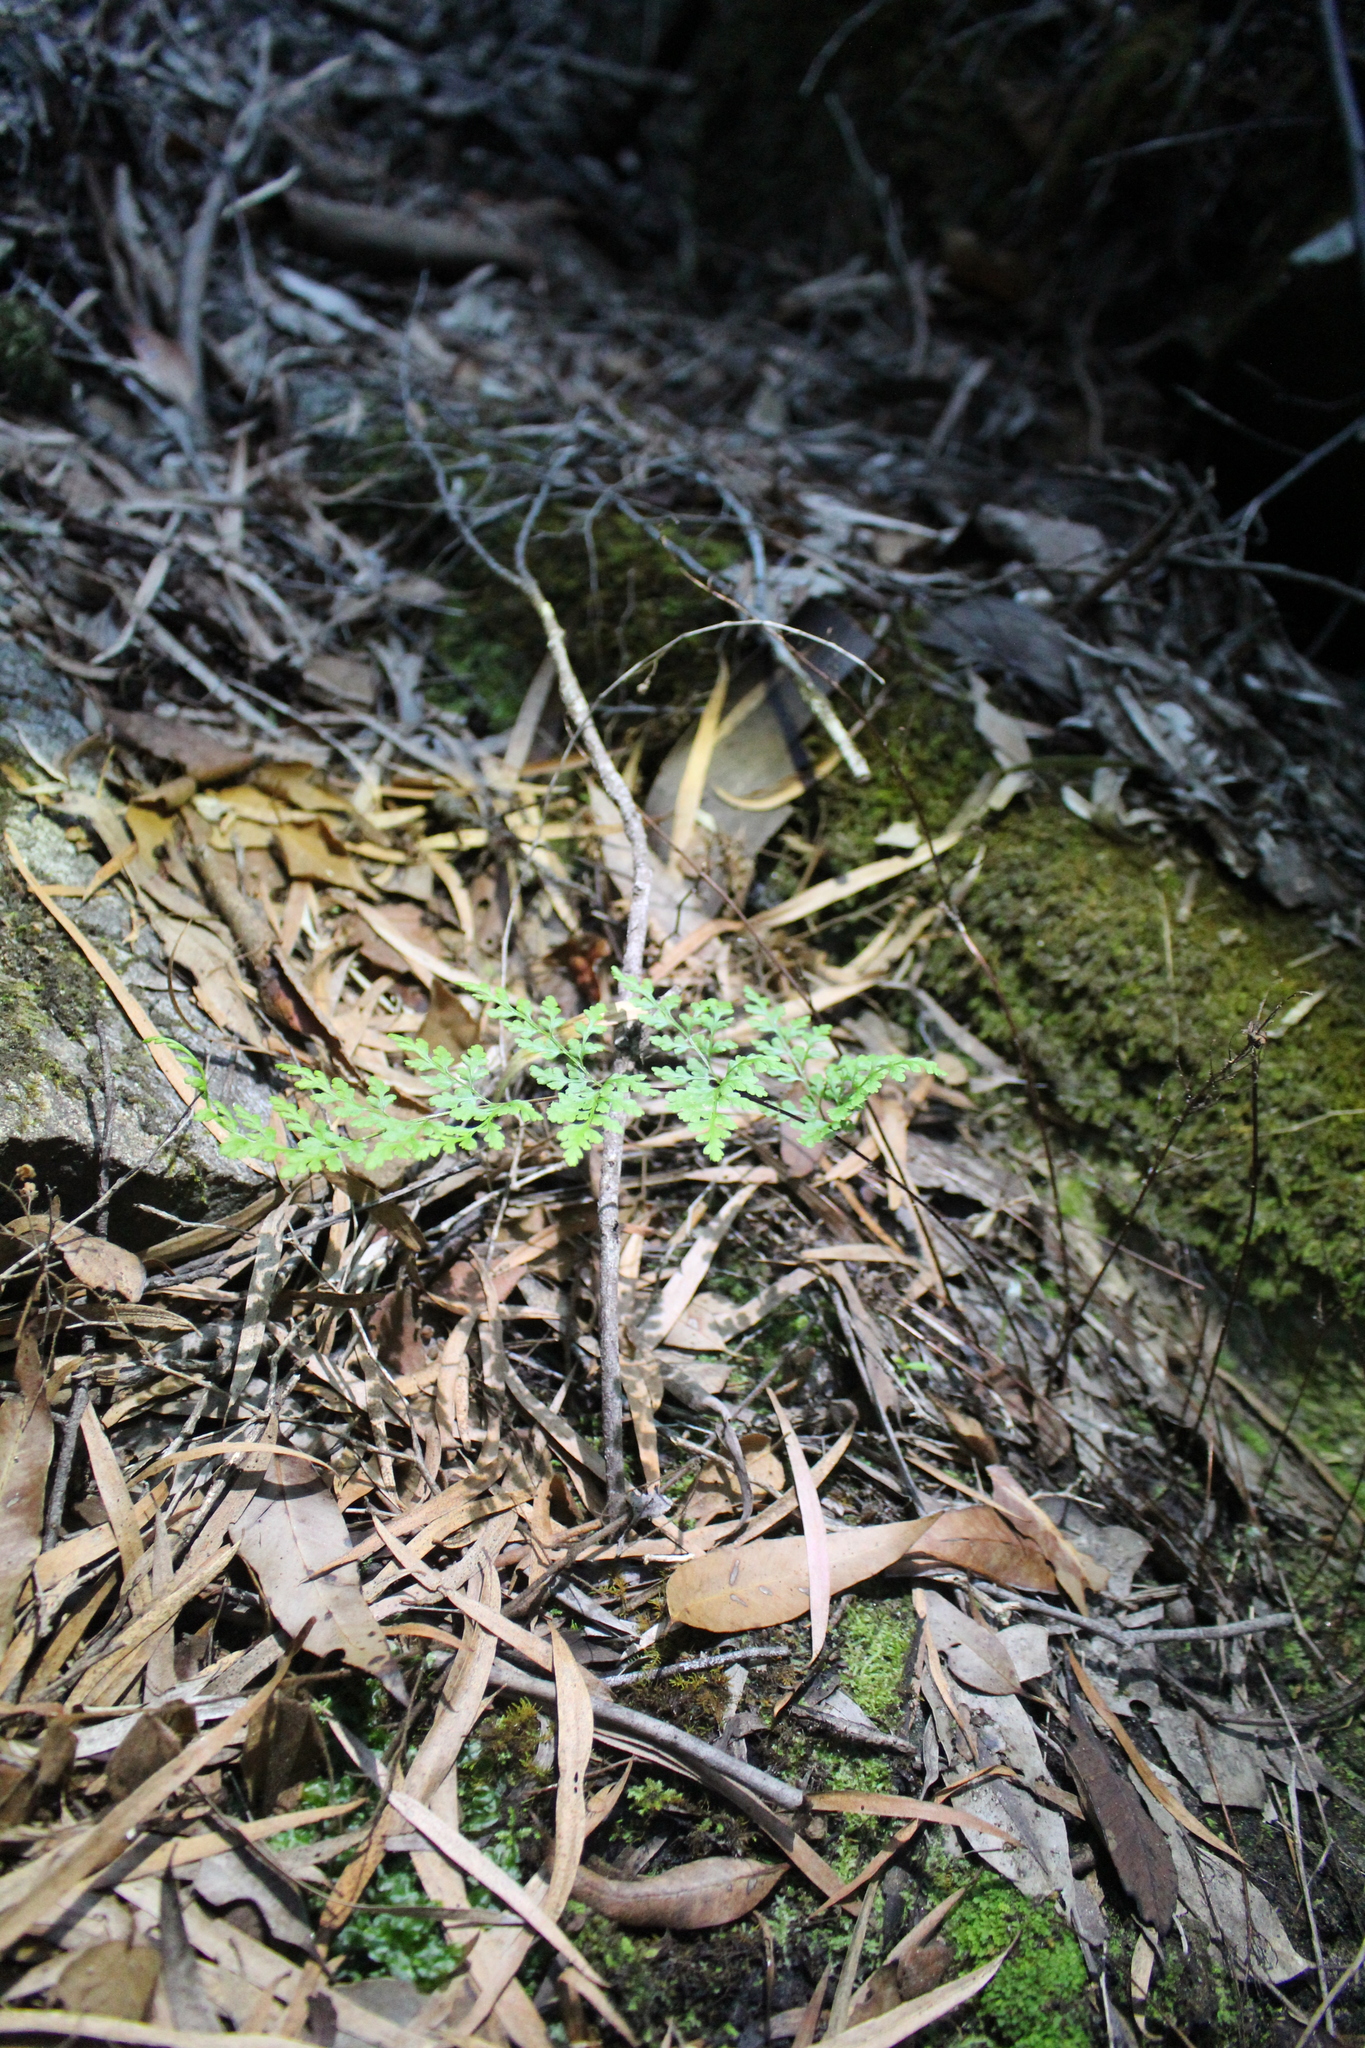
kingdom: Plantae
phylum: Tracheophyta
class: Polypodiopsida
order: Polypodiales
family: Pteridaceae
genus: Cheilanthes
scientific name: Cheilanthes austrotenuifolia
